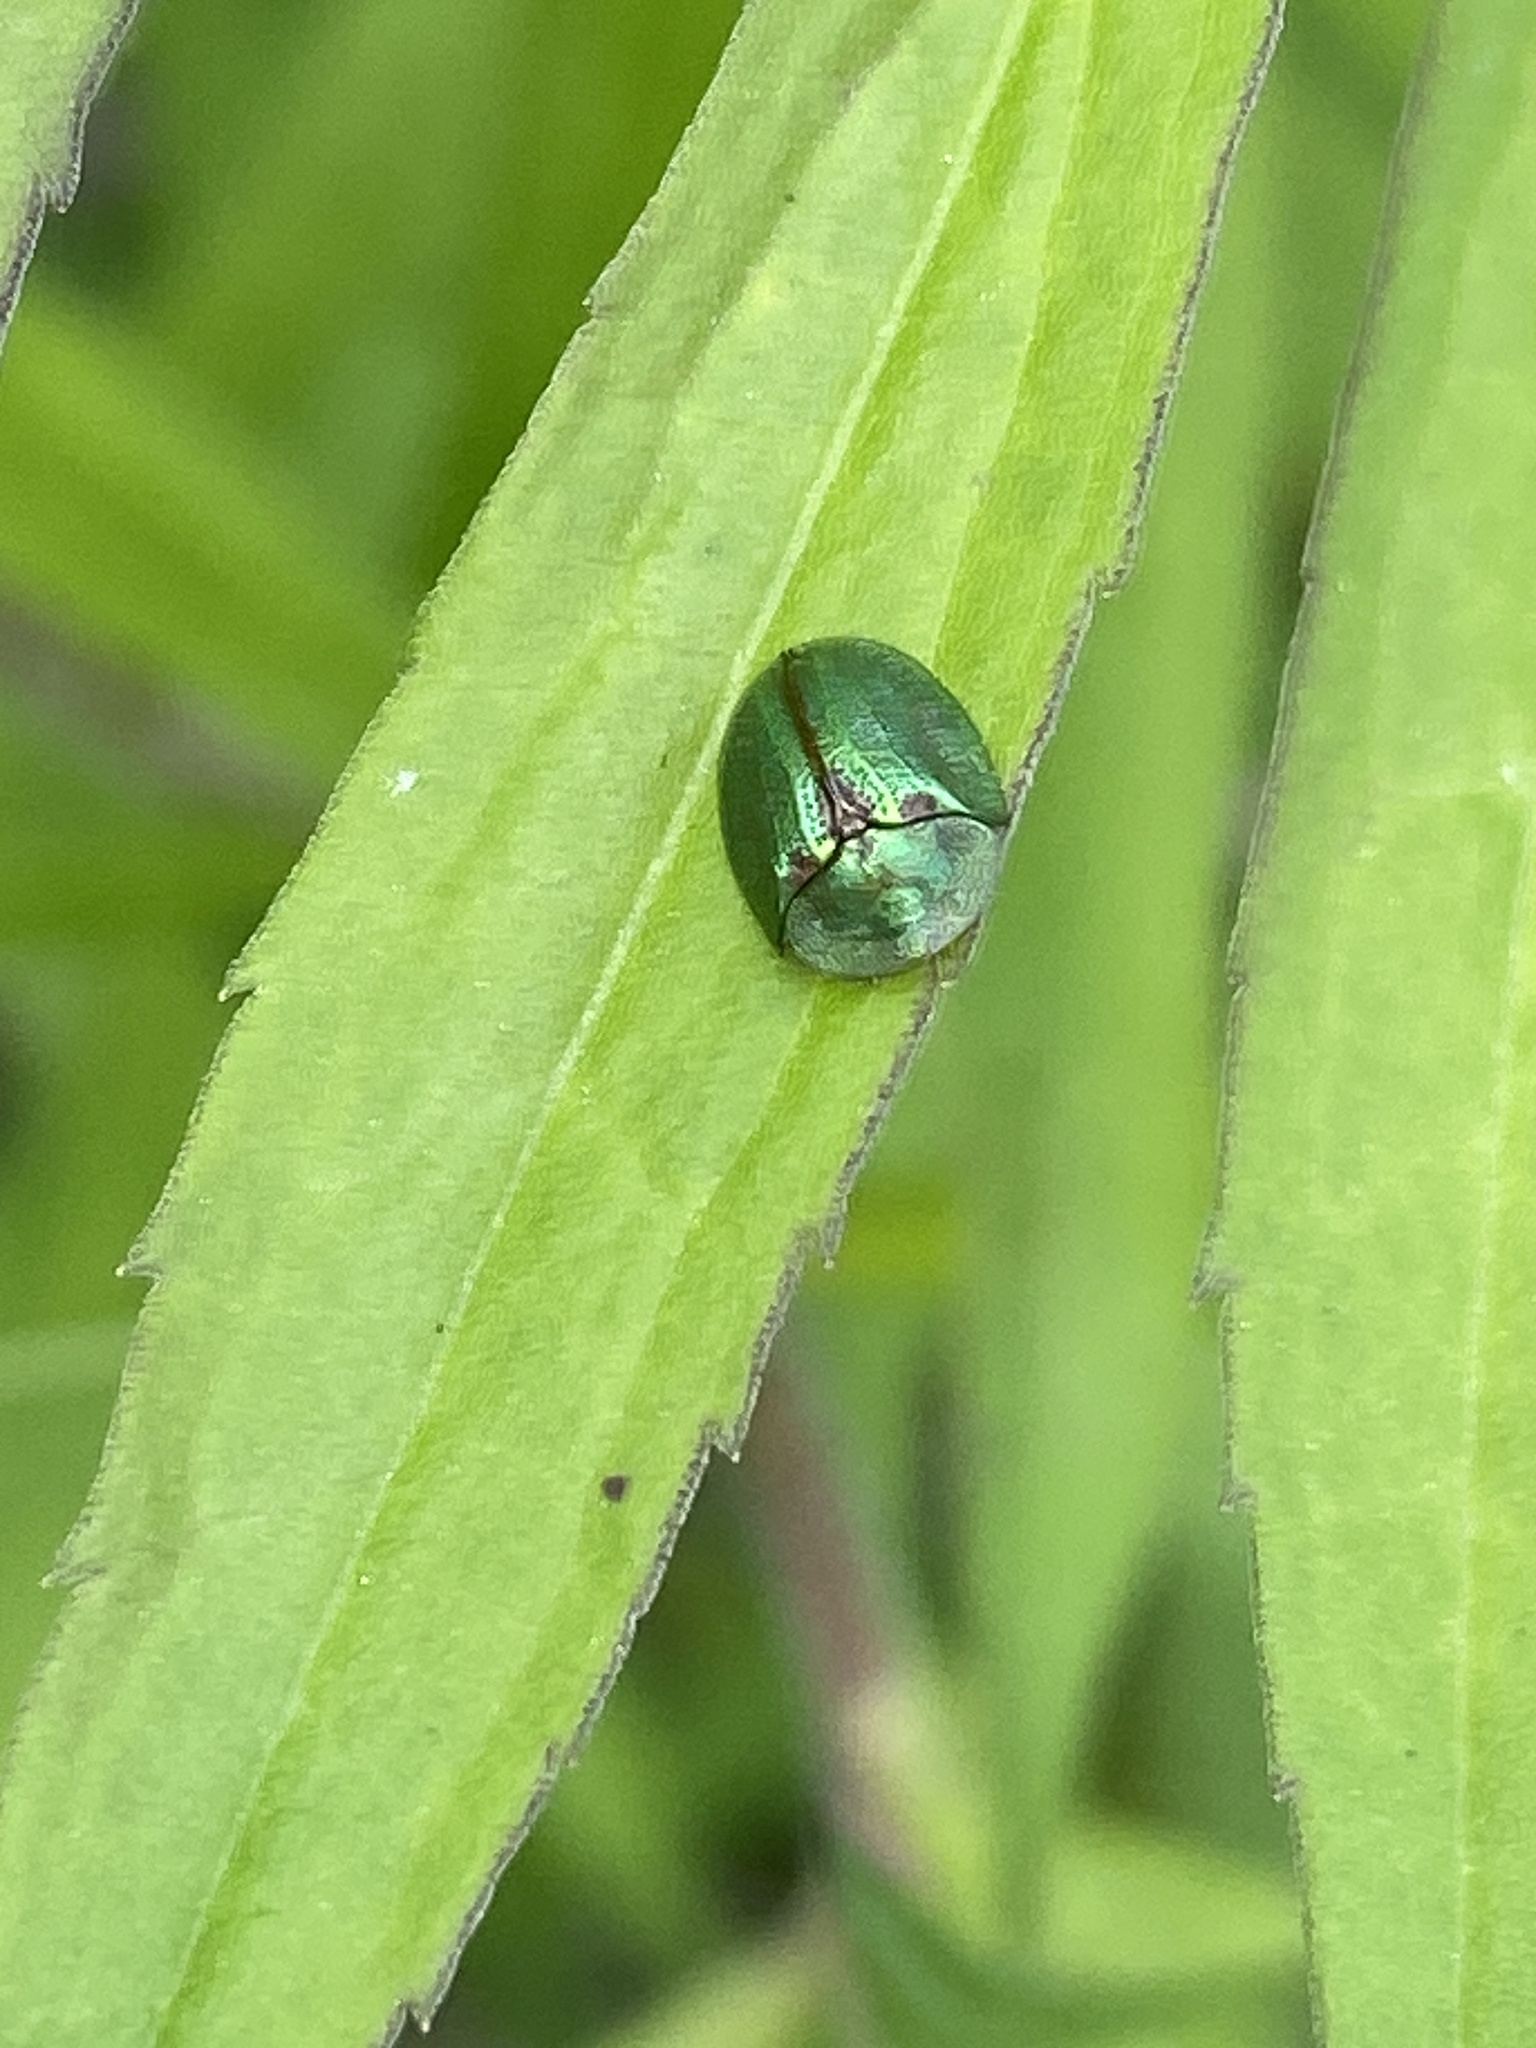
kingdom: Animalia
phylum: Arthropoda
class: Insecta
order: Coleoptera
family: Chrysomelidae
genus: Cassida
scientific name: Cassida stigmatica
